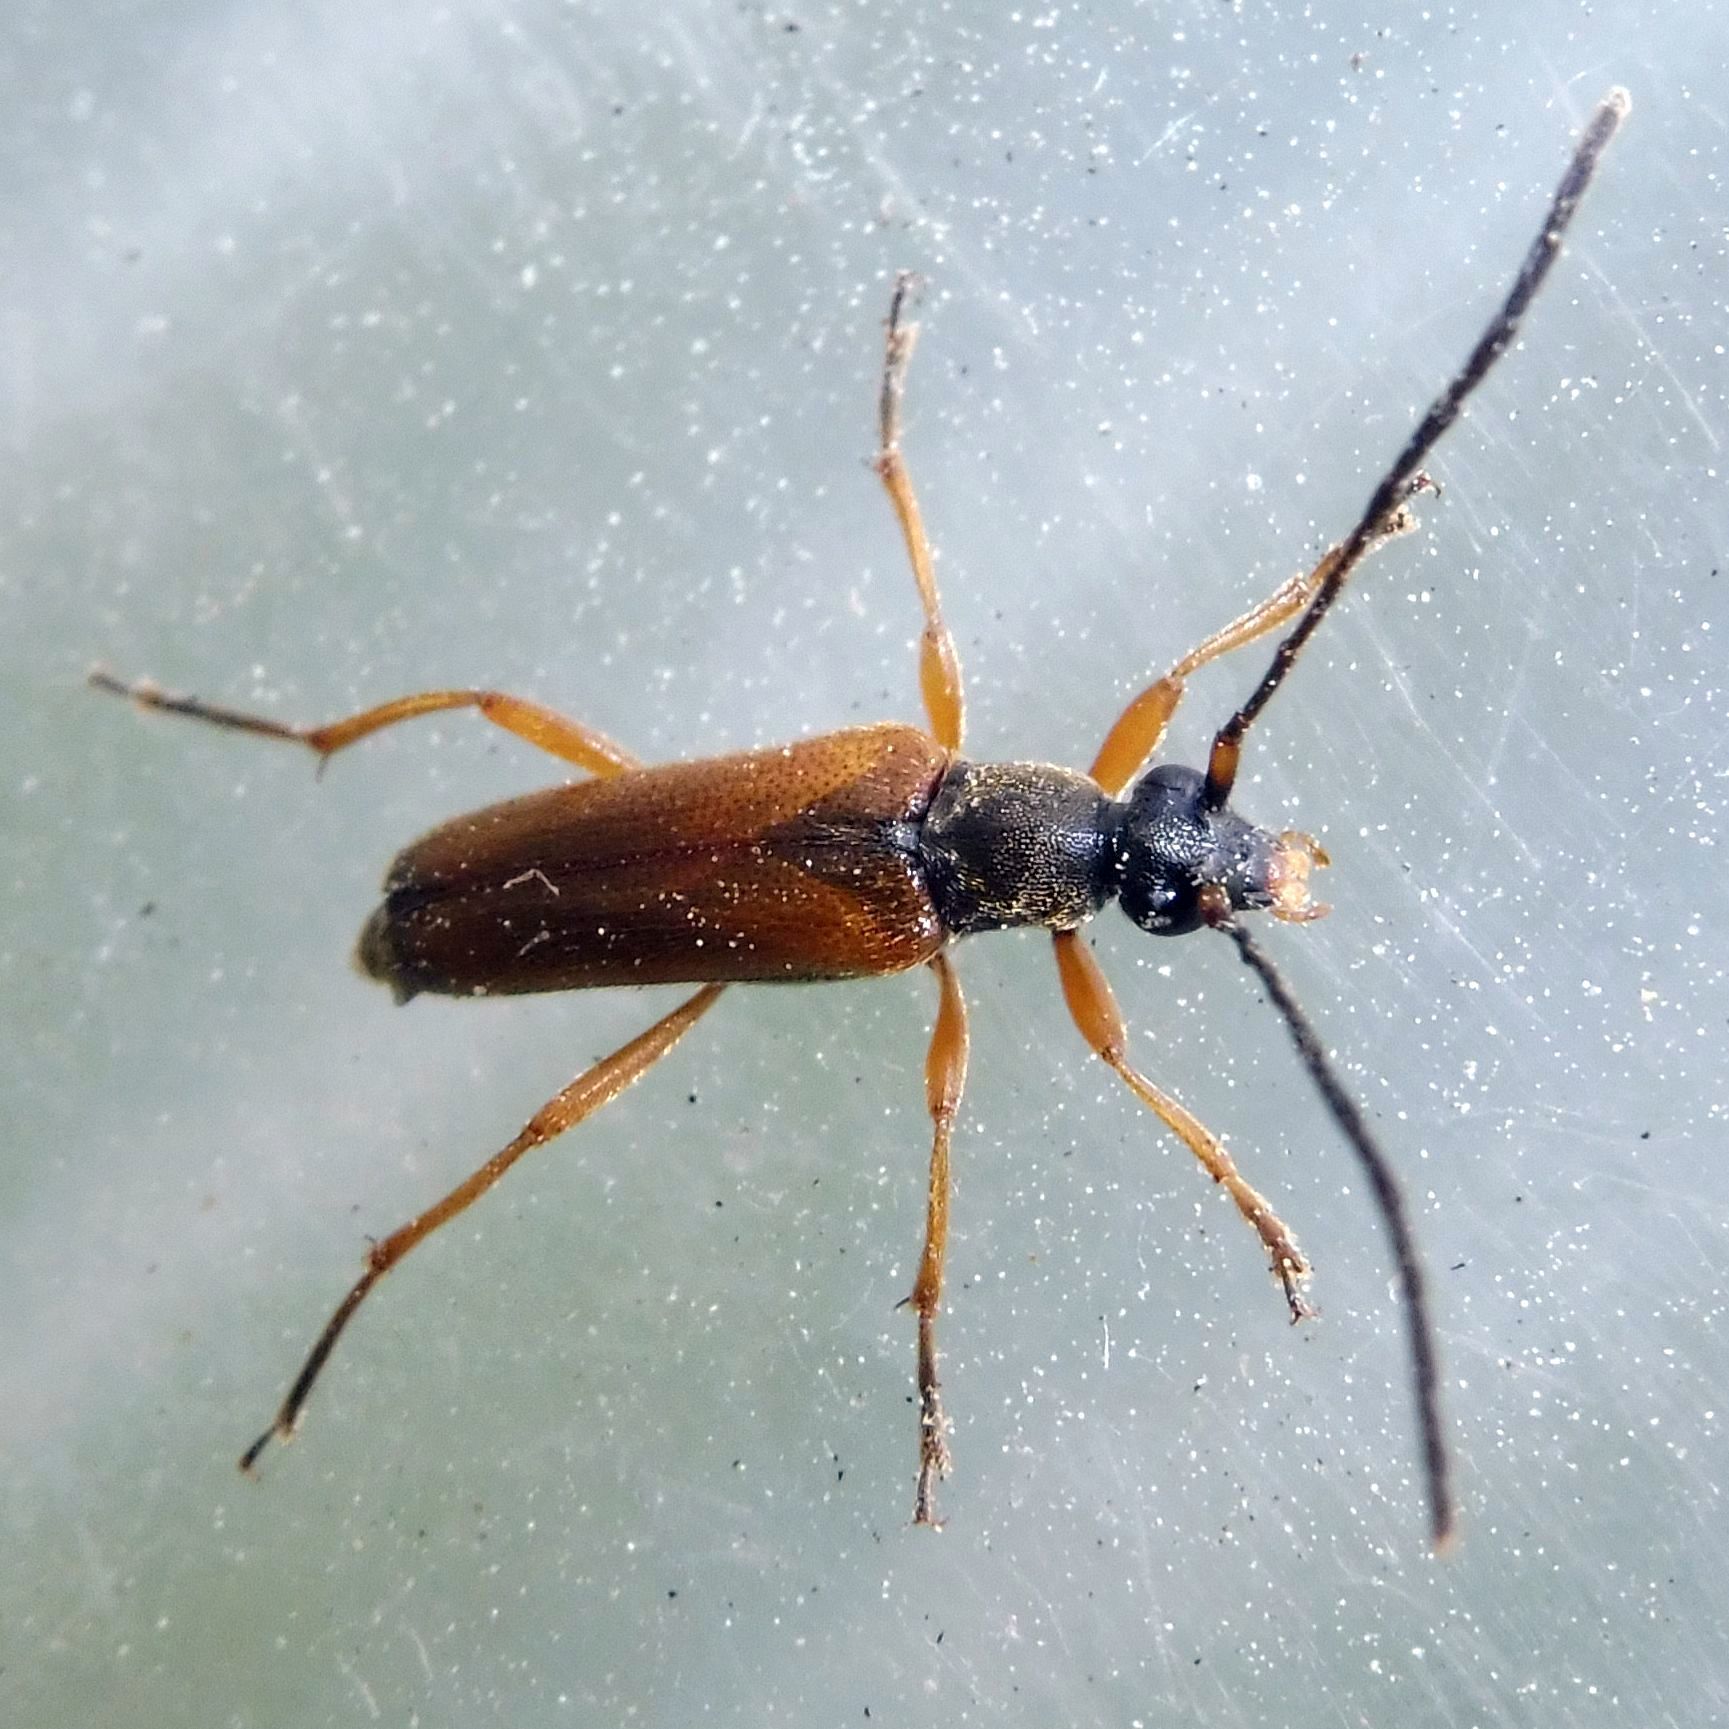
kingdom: Animalia
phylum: Arthropoda
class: Insecta
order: Coleoptera
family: Cerambycidae
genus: Alosterna
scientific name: Alosterna tabacicolor
